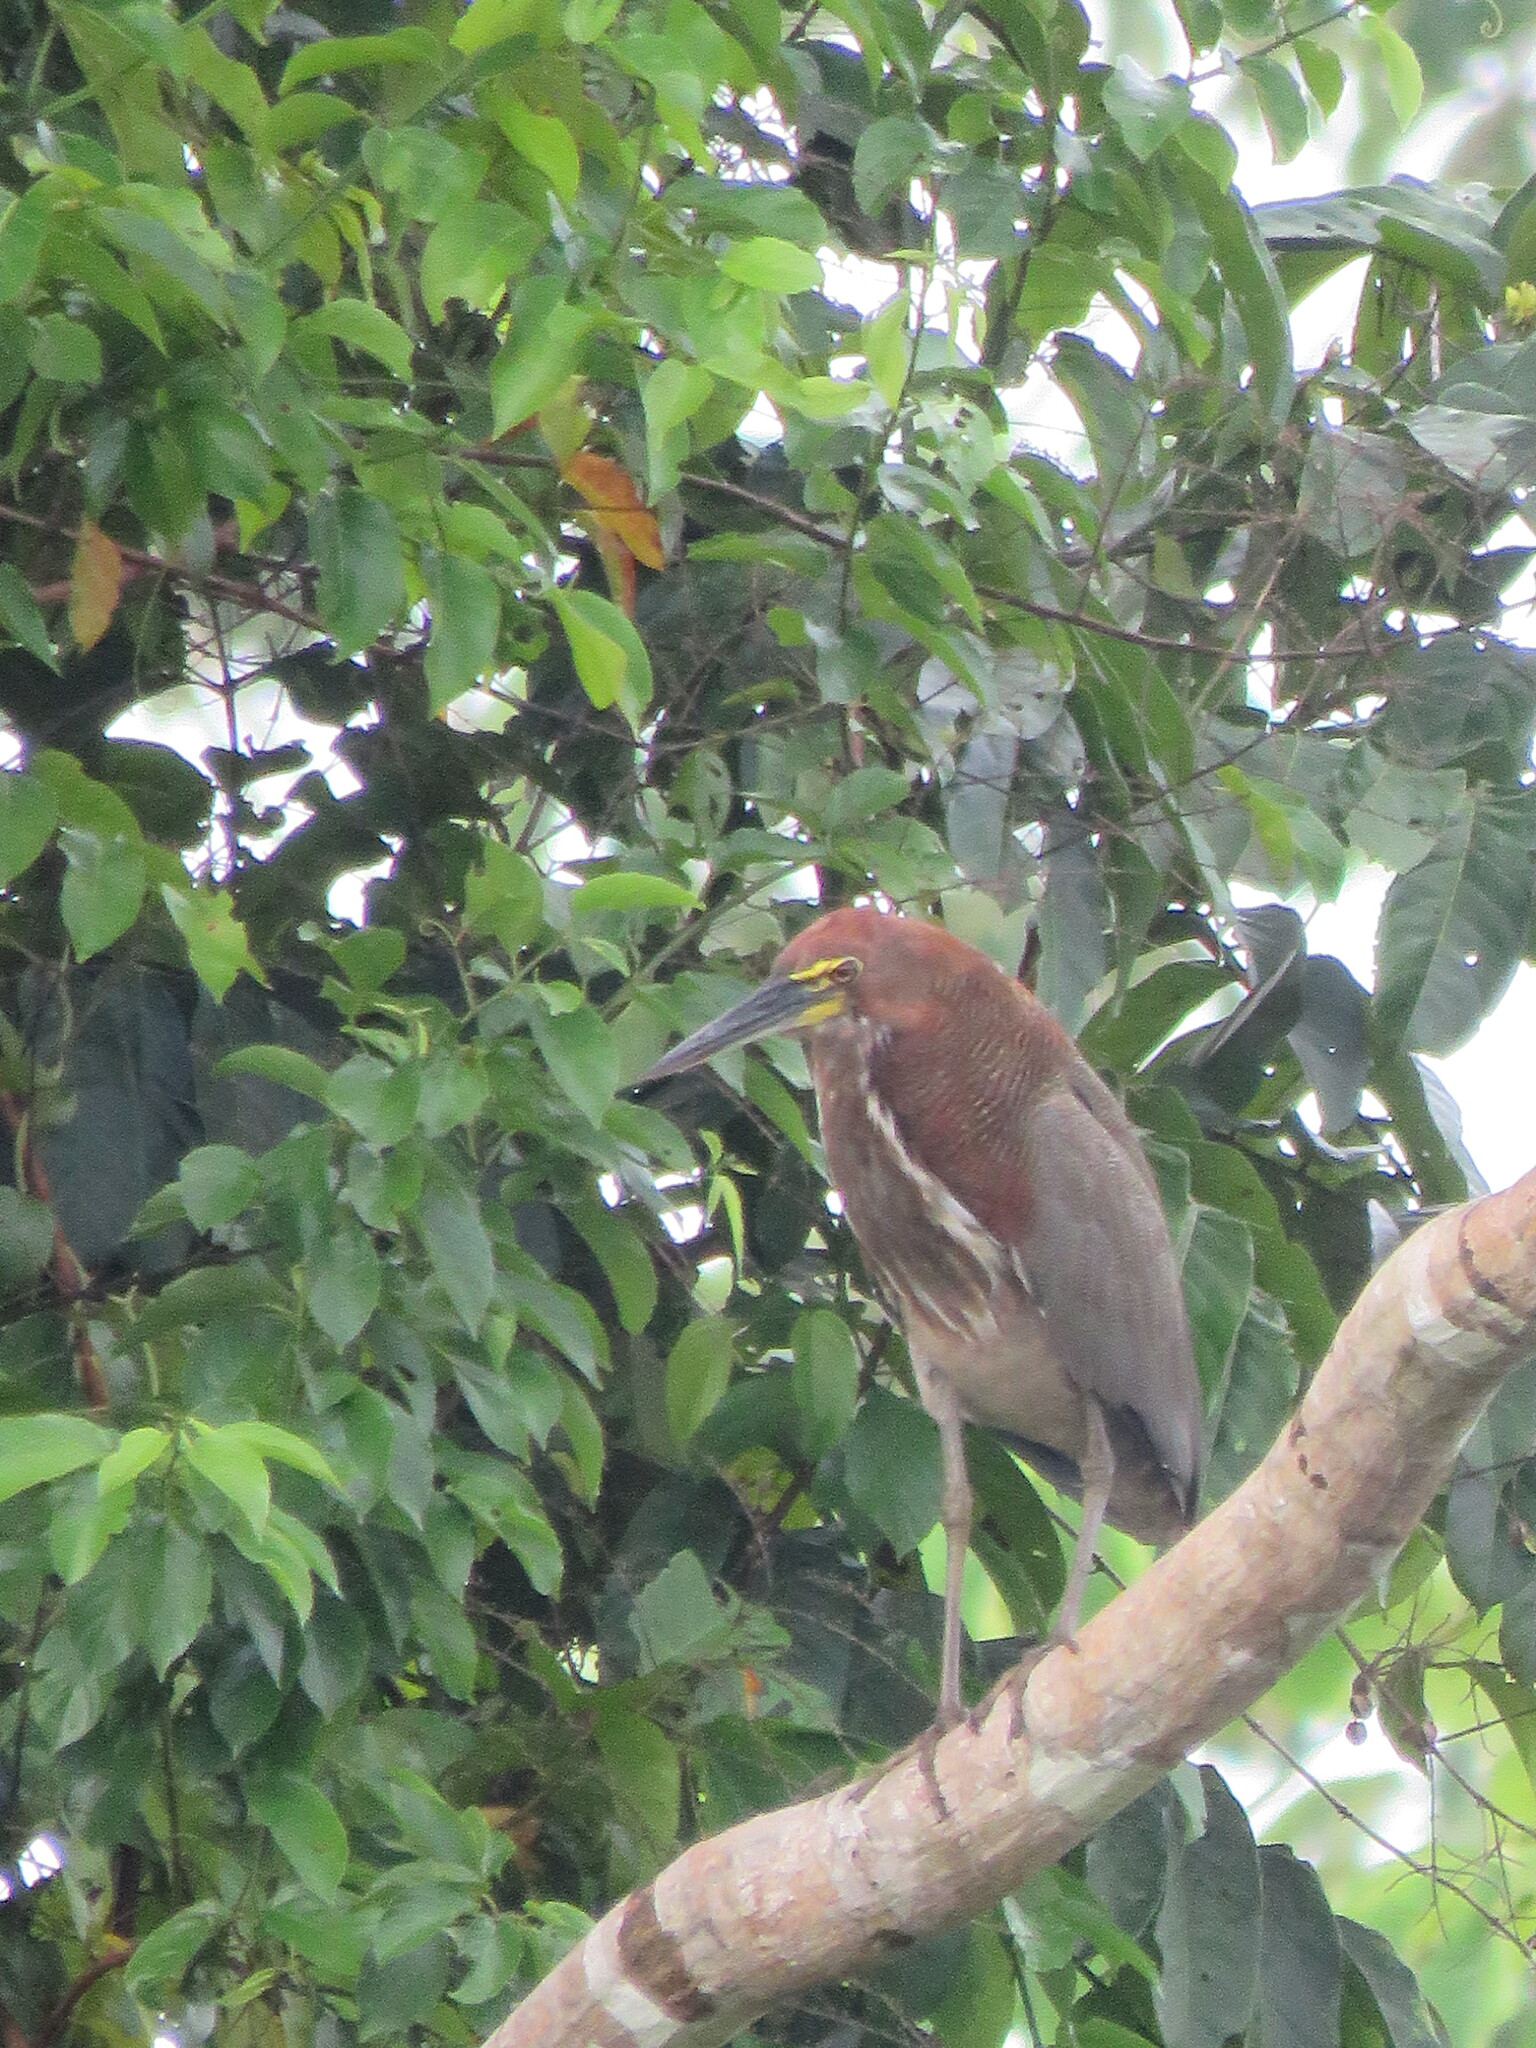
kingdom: Animalia
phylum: Chordata
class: Aves
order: Pelecaniformes
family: Ardeidae
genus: Tigrisoma
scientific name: Tigrisoma lineatum
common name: Rufescent tiger-heron
